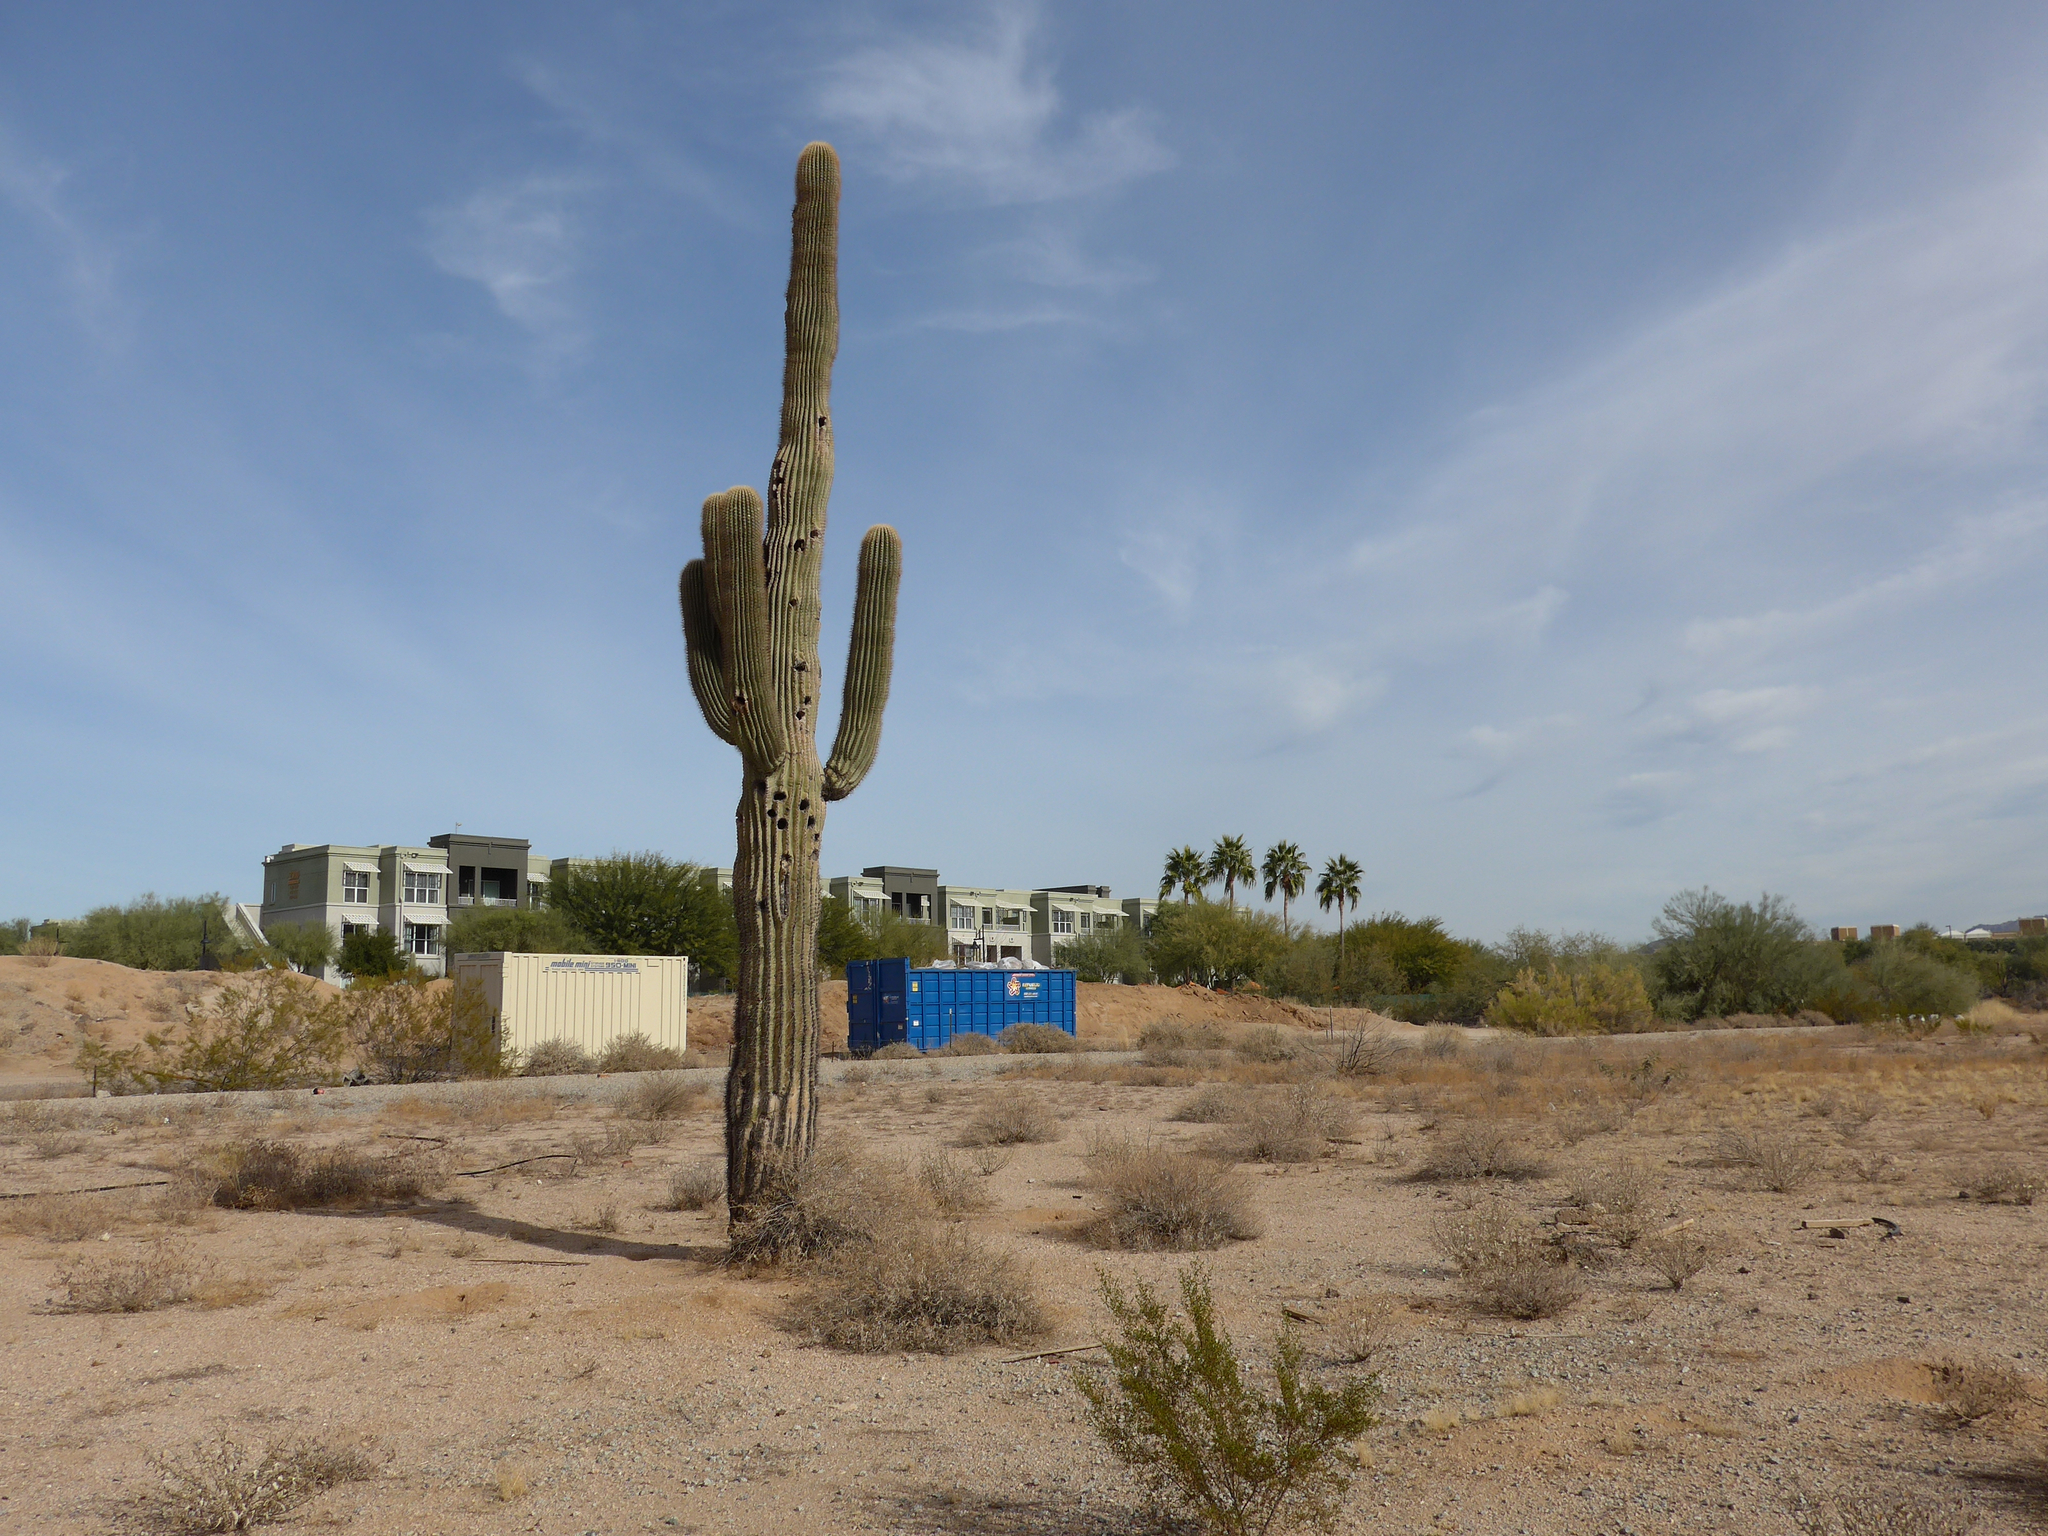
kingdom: Plantae
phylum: Tracheophyta
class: Magnoliopsida
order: Caryophyllales
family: Cactaceae
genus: Carnegiea
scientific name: Carnegiea gigantea
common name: Saguaro
